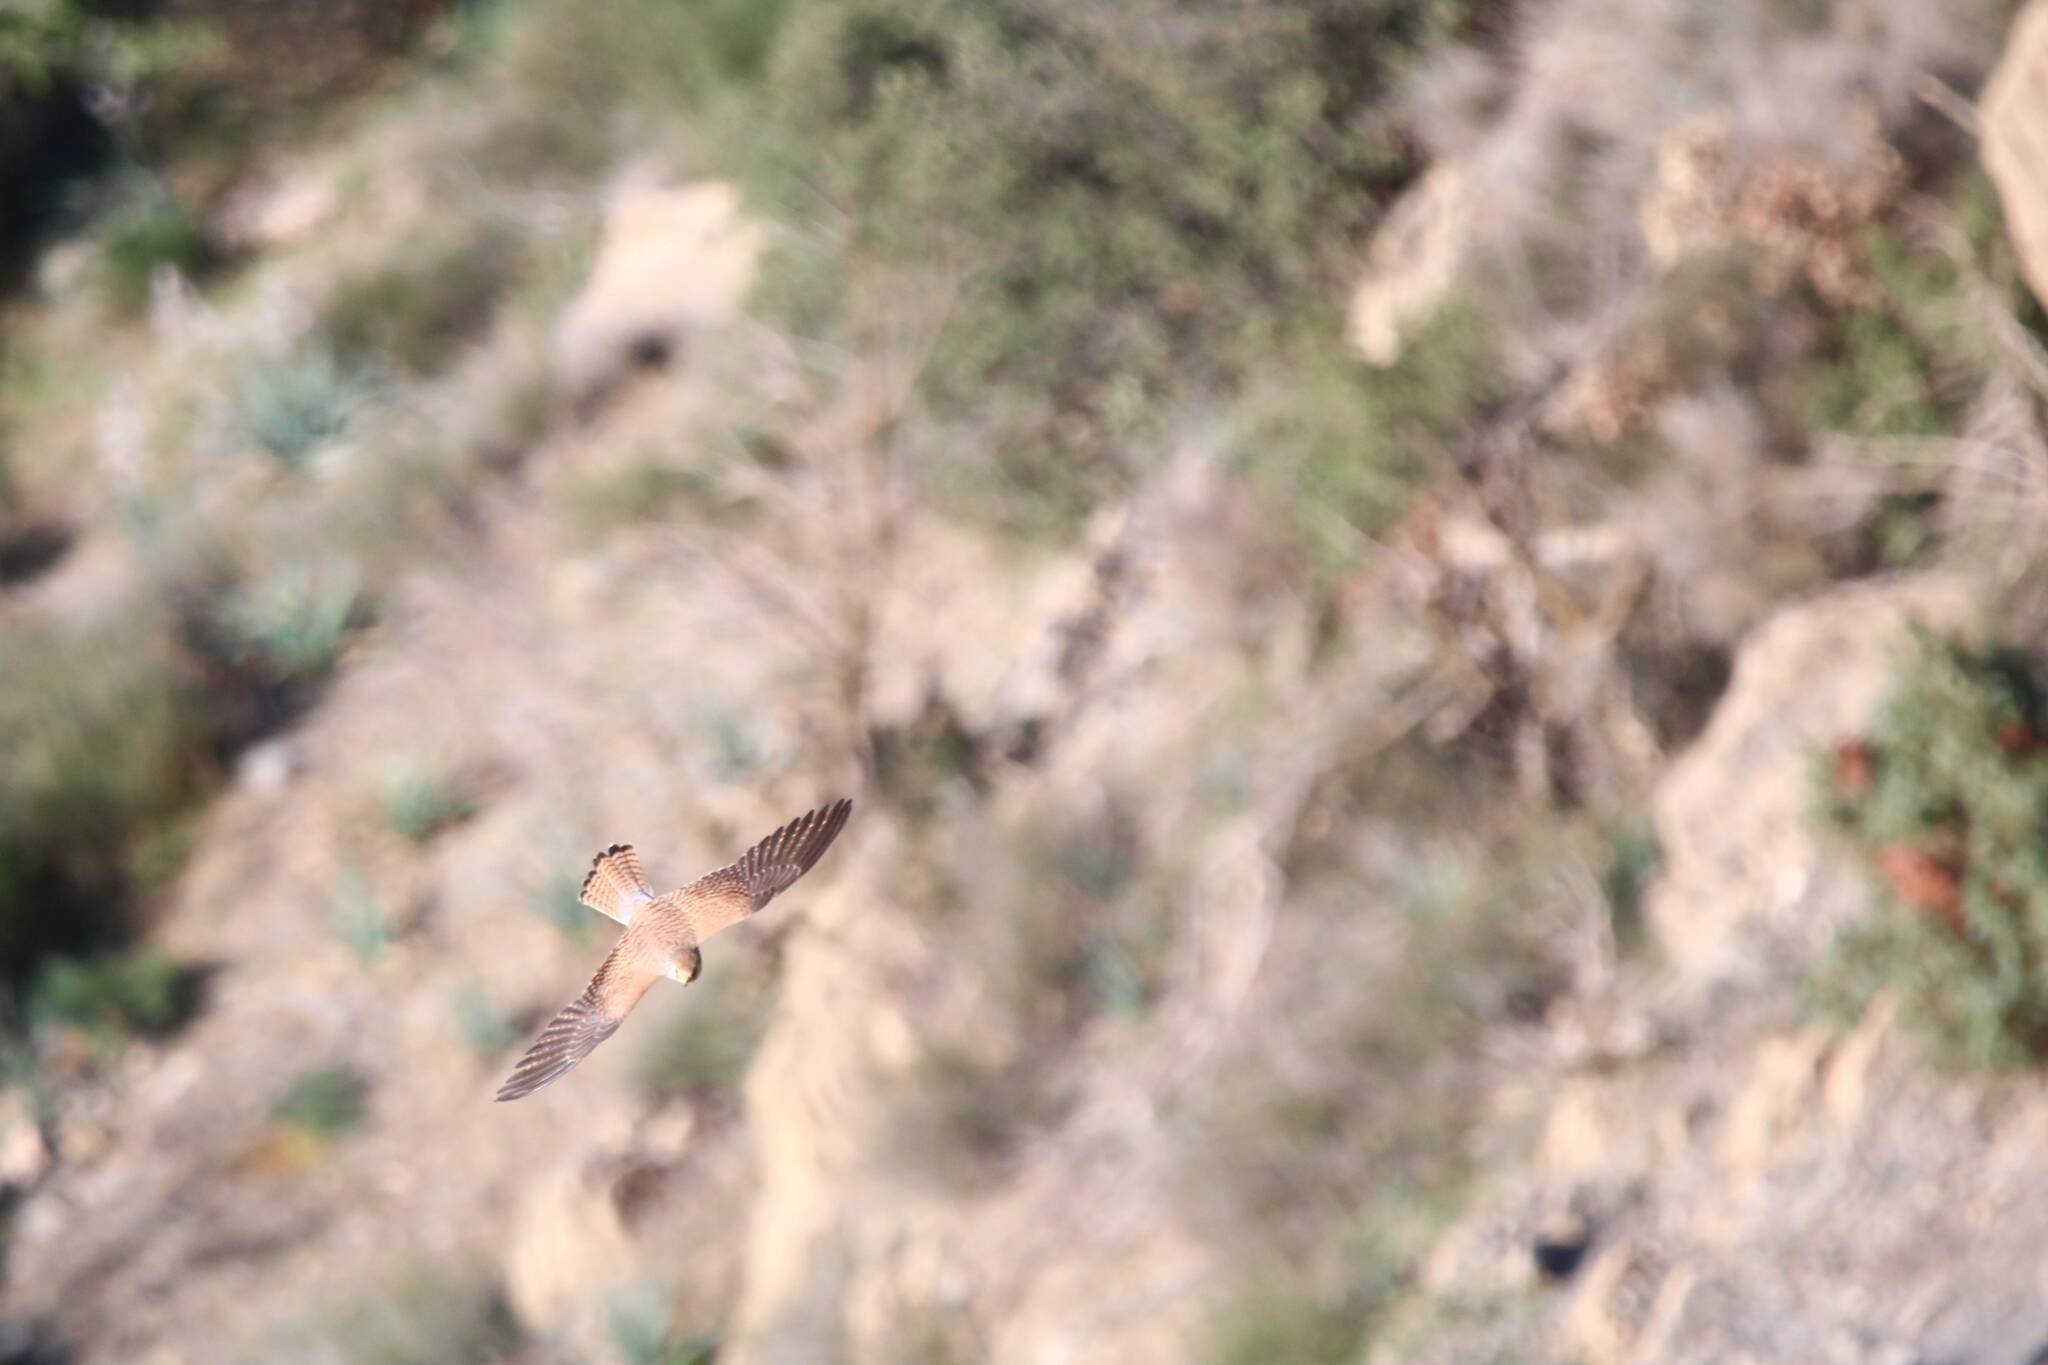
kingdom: Animalia
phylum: Chordata
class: Aves
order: Falconiformes
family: Falconidae
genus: Falco
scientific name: Falco naumanni
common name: Lesser kestrel
